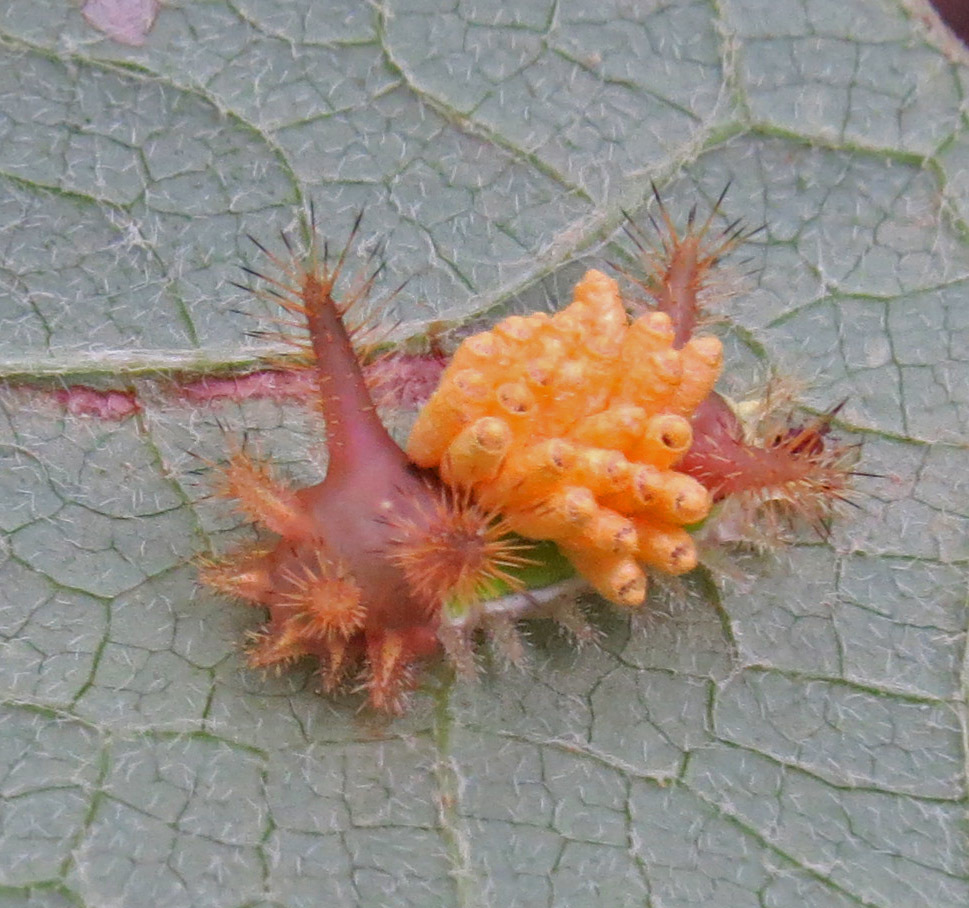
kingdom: Animalia
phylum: Arthropoda
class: Insecta
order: Lepidoptera
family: Limacodidae
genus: Acharia
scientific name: Acharia stimulea
